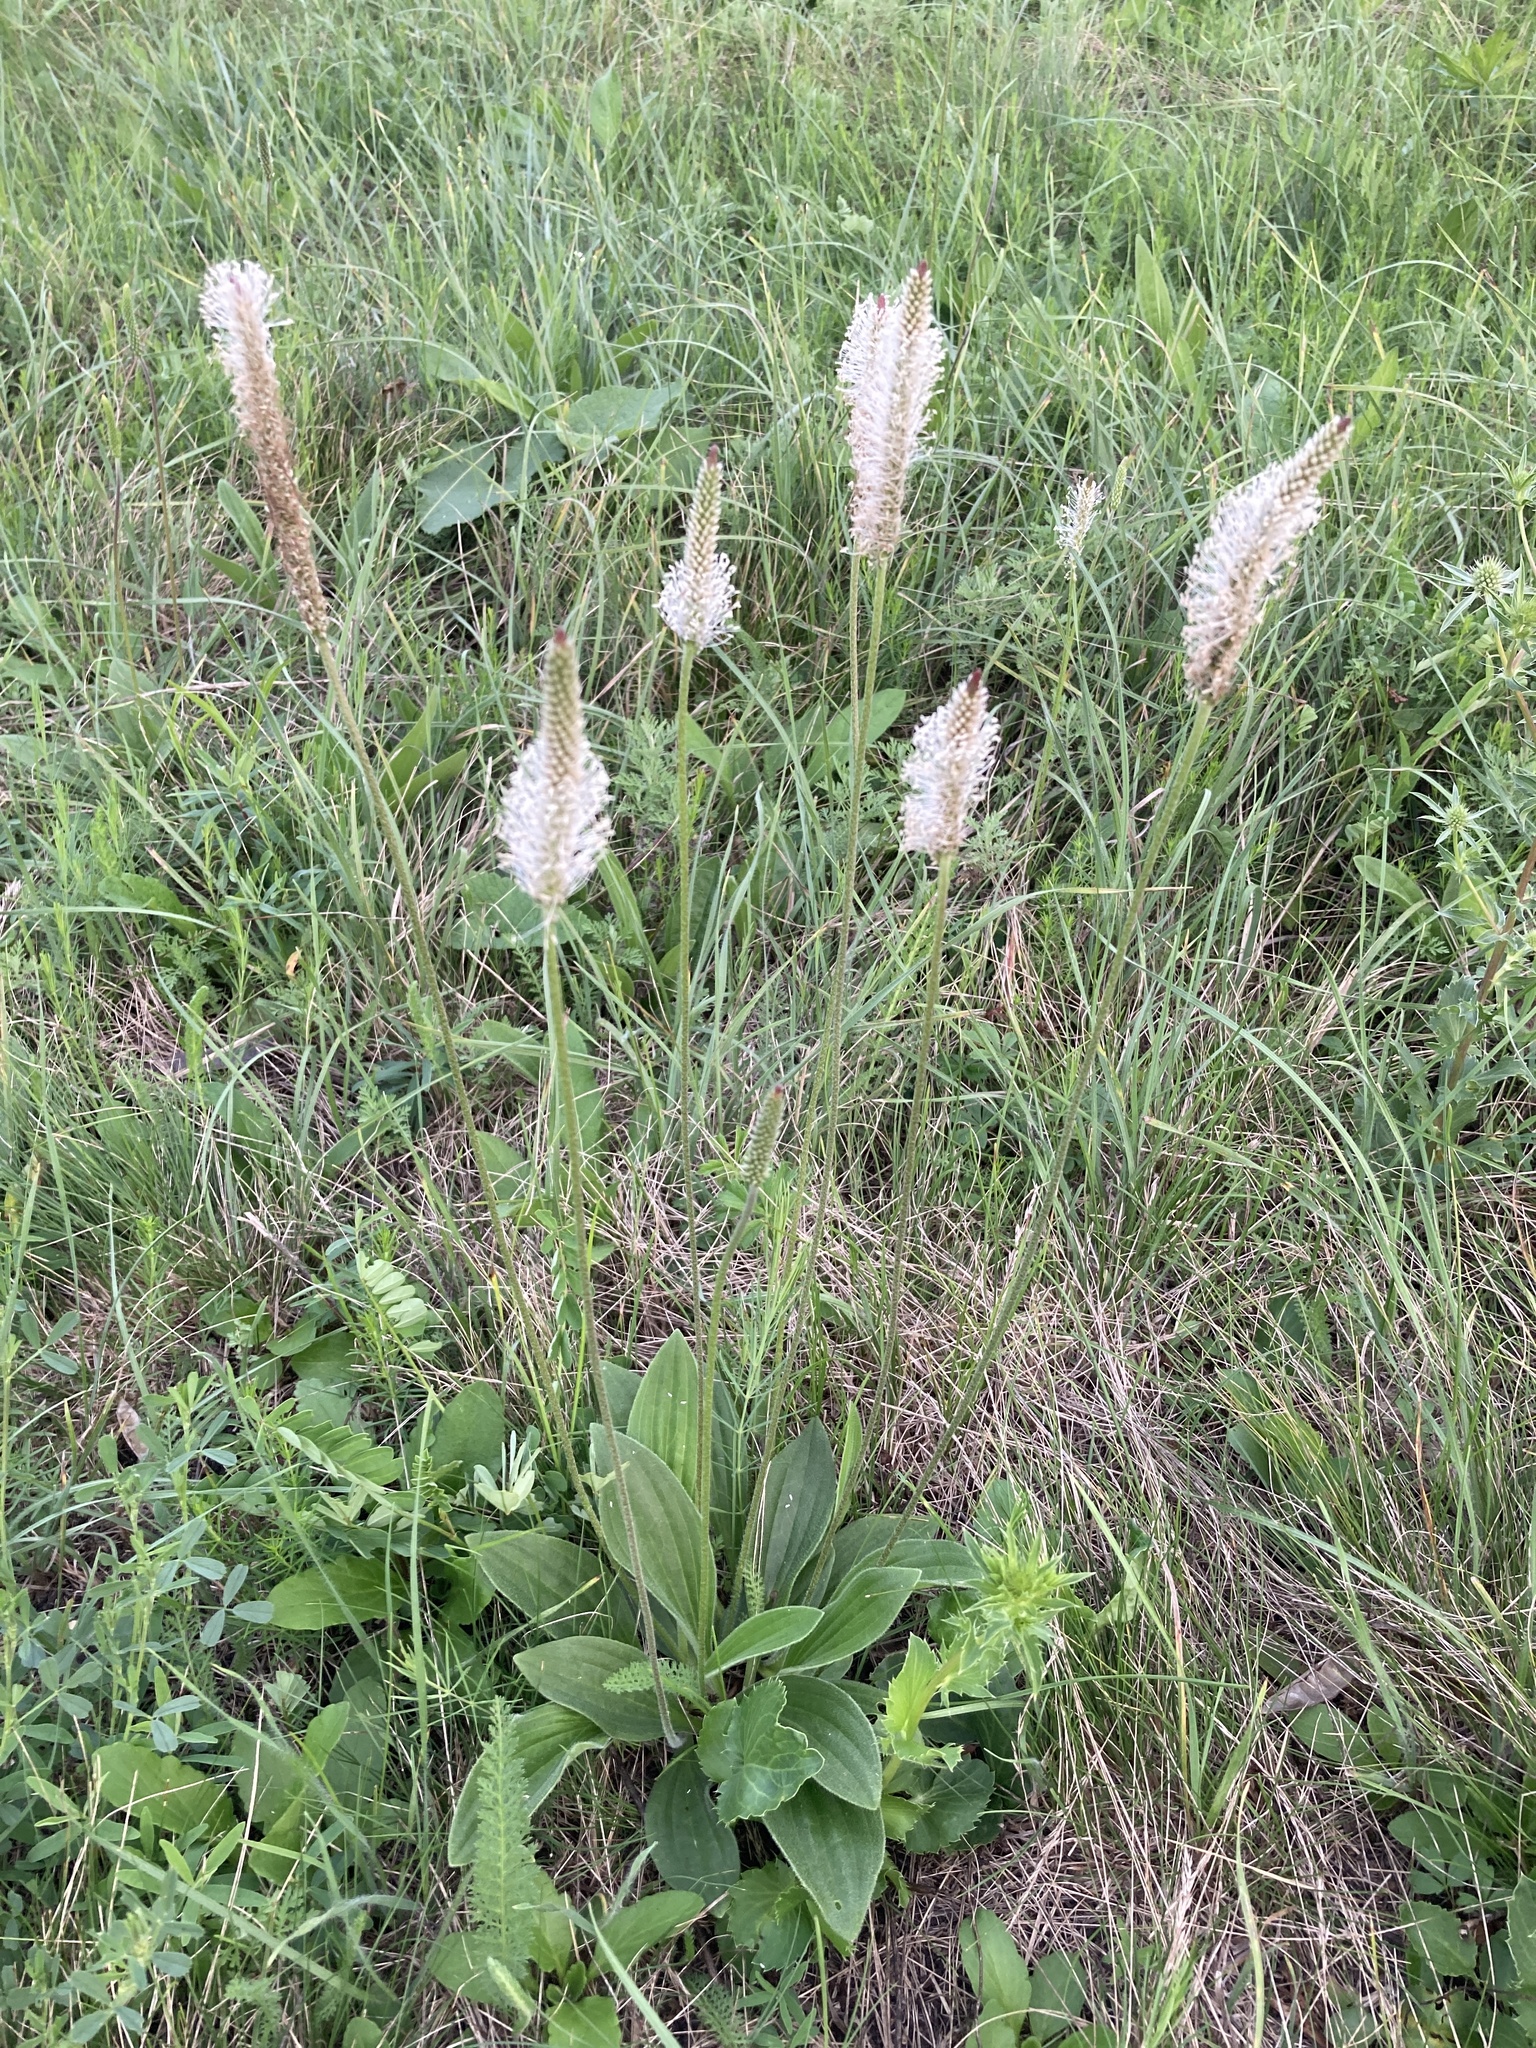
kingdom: Plantae
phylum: Tracheophyta
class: Magnoliopsida
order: Lamiales
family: Plantaginaceae
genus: Plantago
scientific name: Plantago media
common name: Hoary plantain
